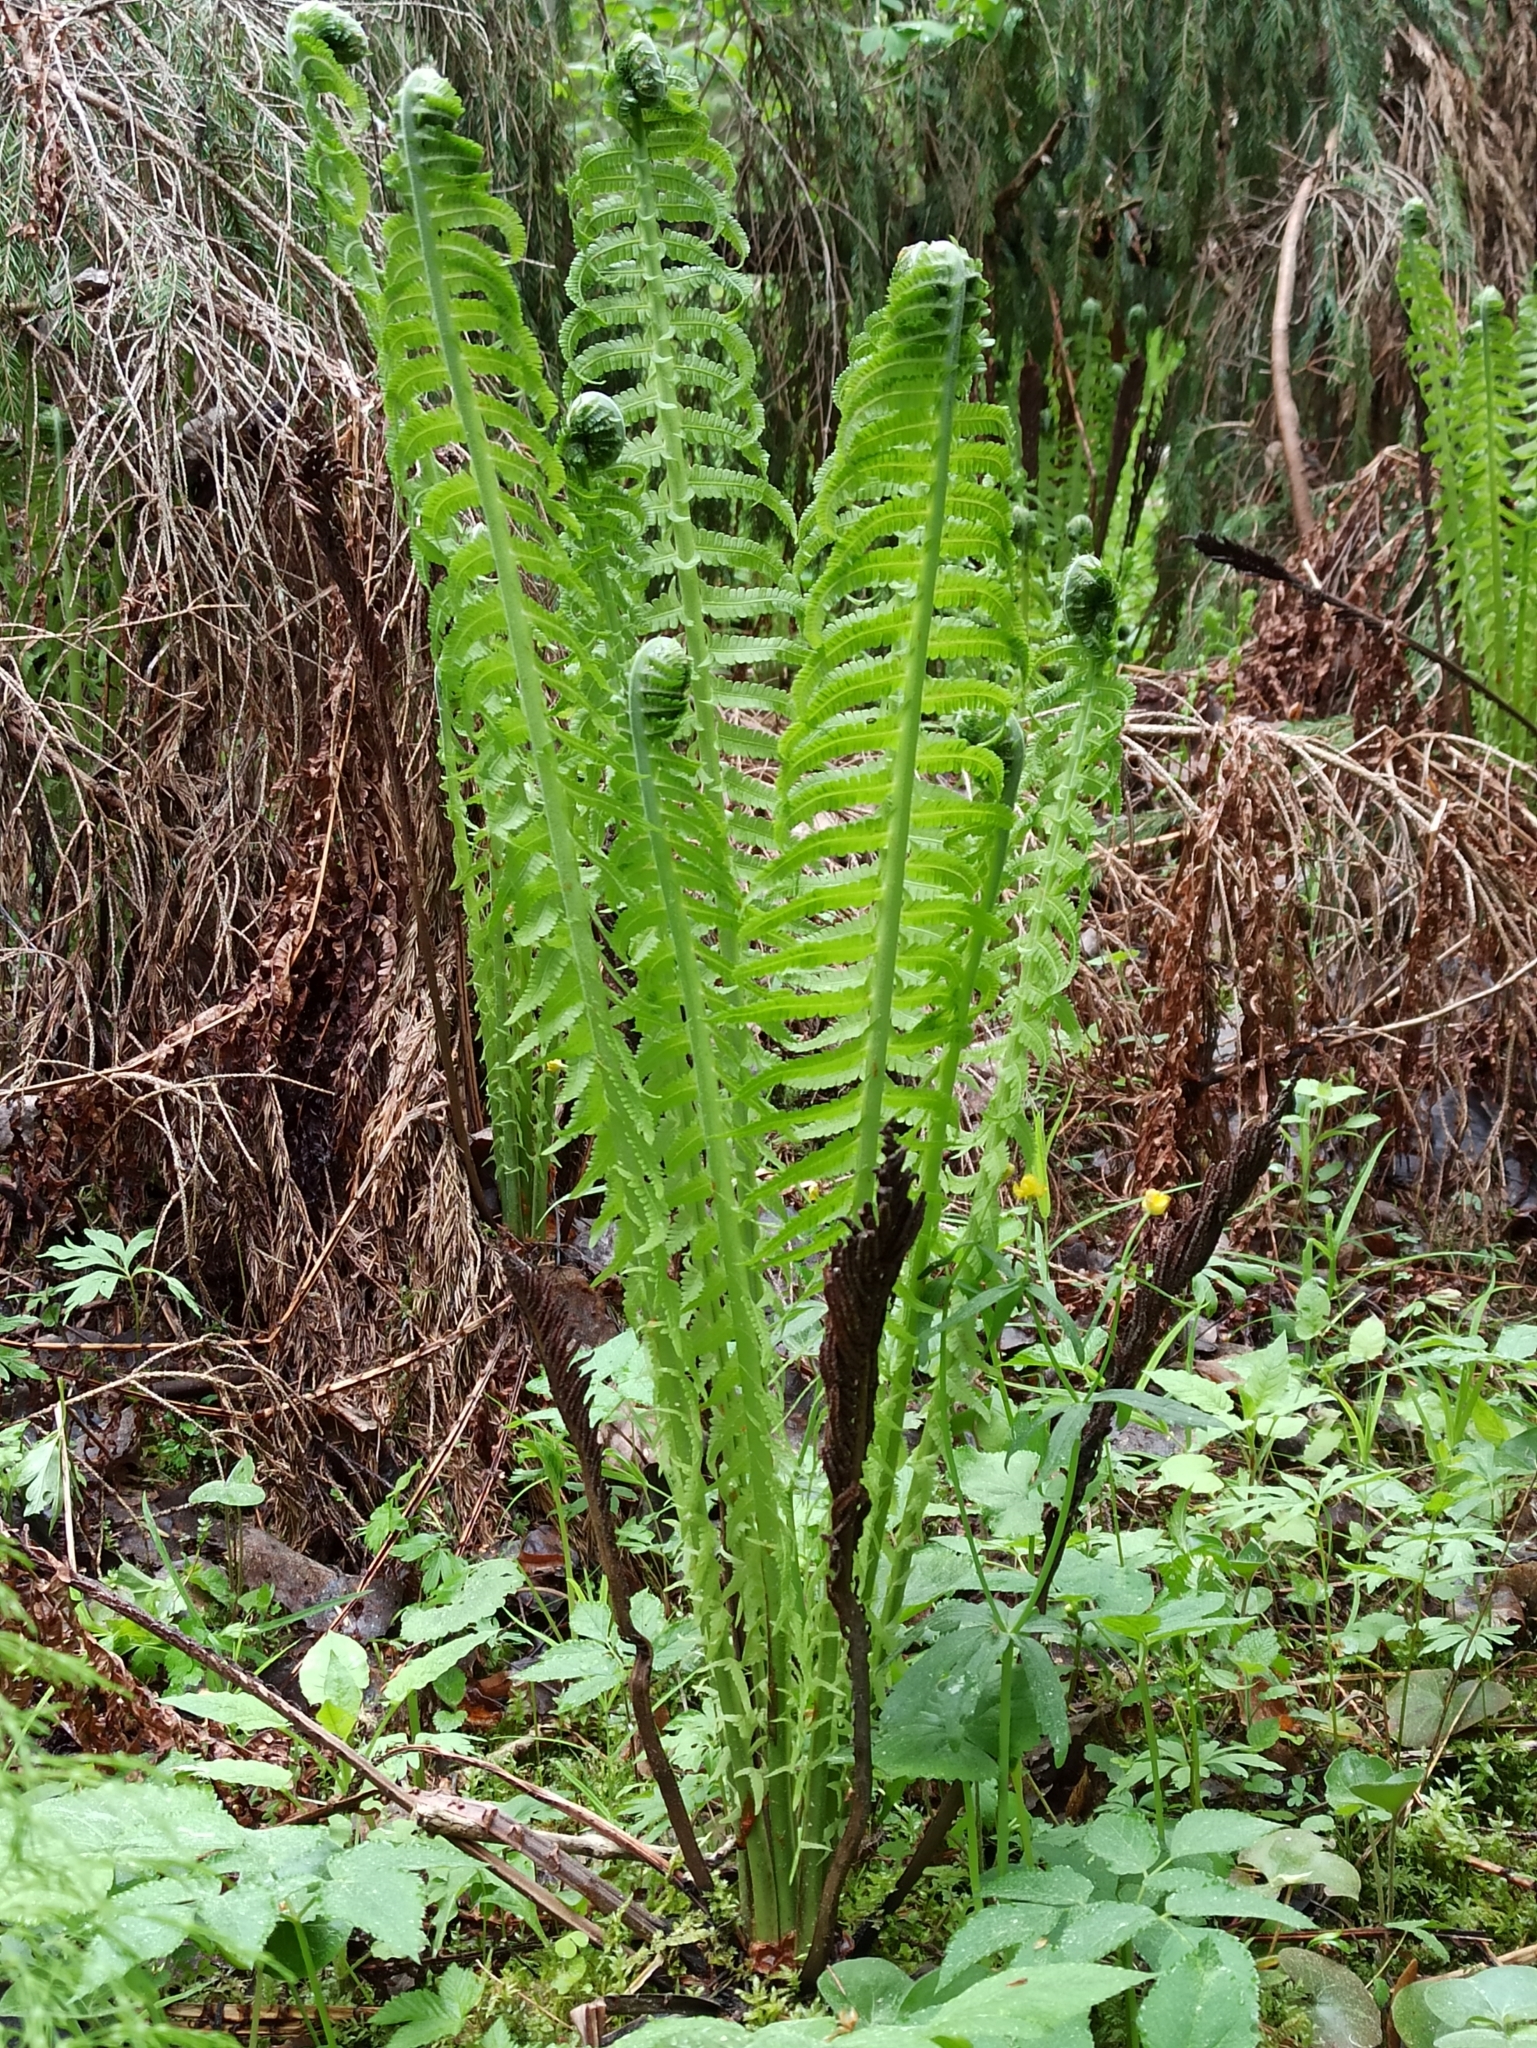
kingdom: Plantae
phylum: Tracheophyta
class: Polypodiopsida
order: Polypodiales
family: Onocleaceae
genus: Matteuccia
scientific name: Matteuccia struthiopteris
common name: Ostrich fern
